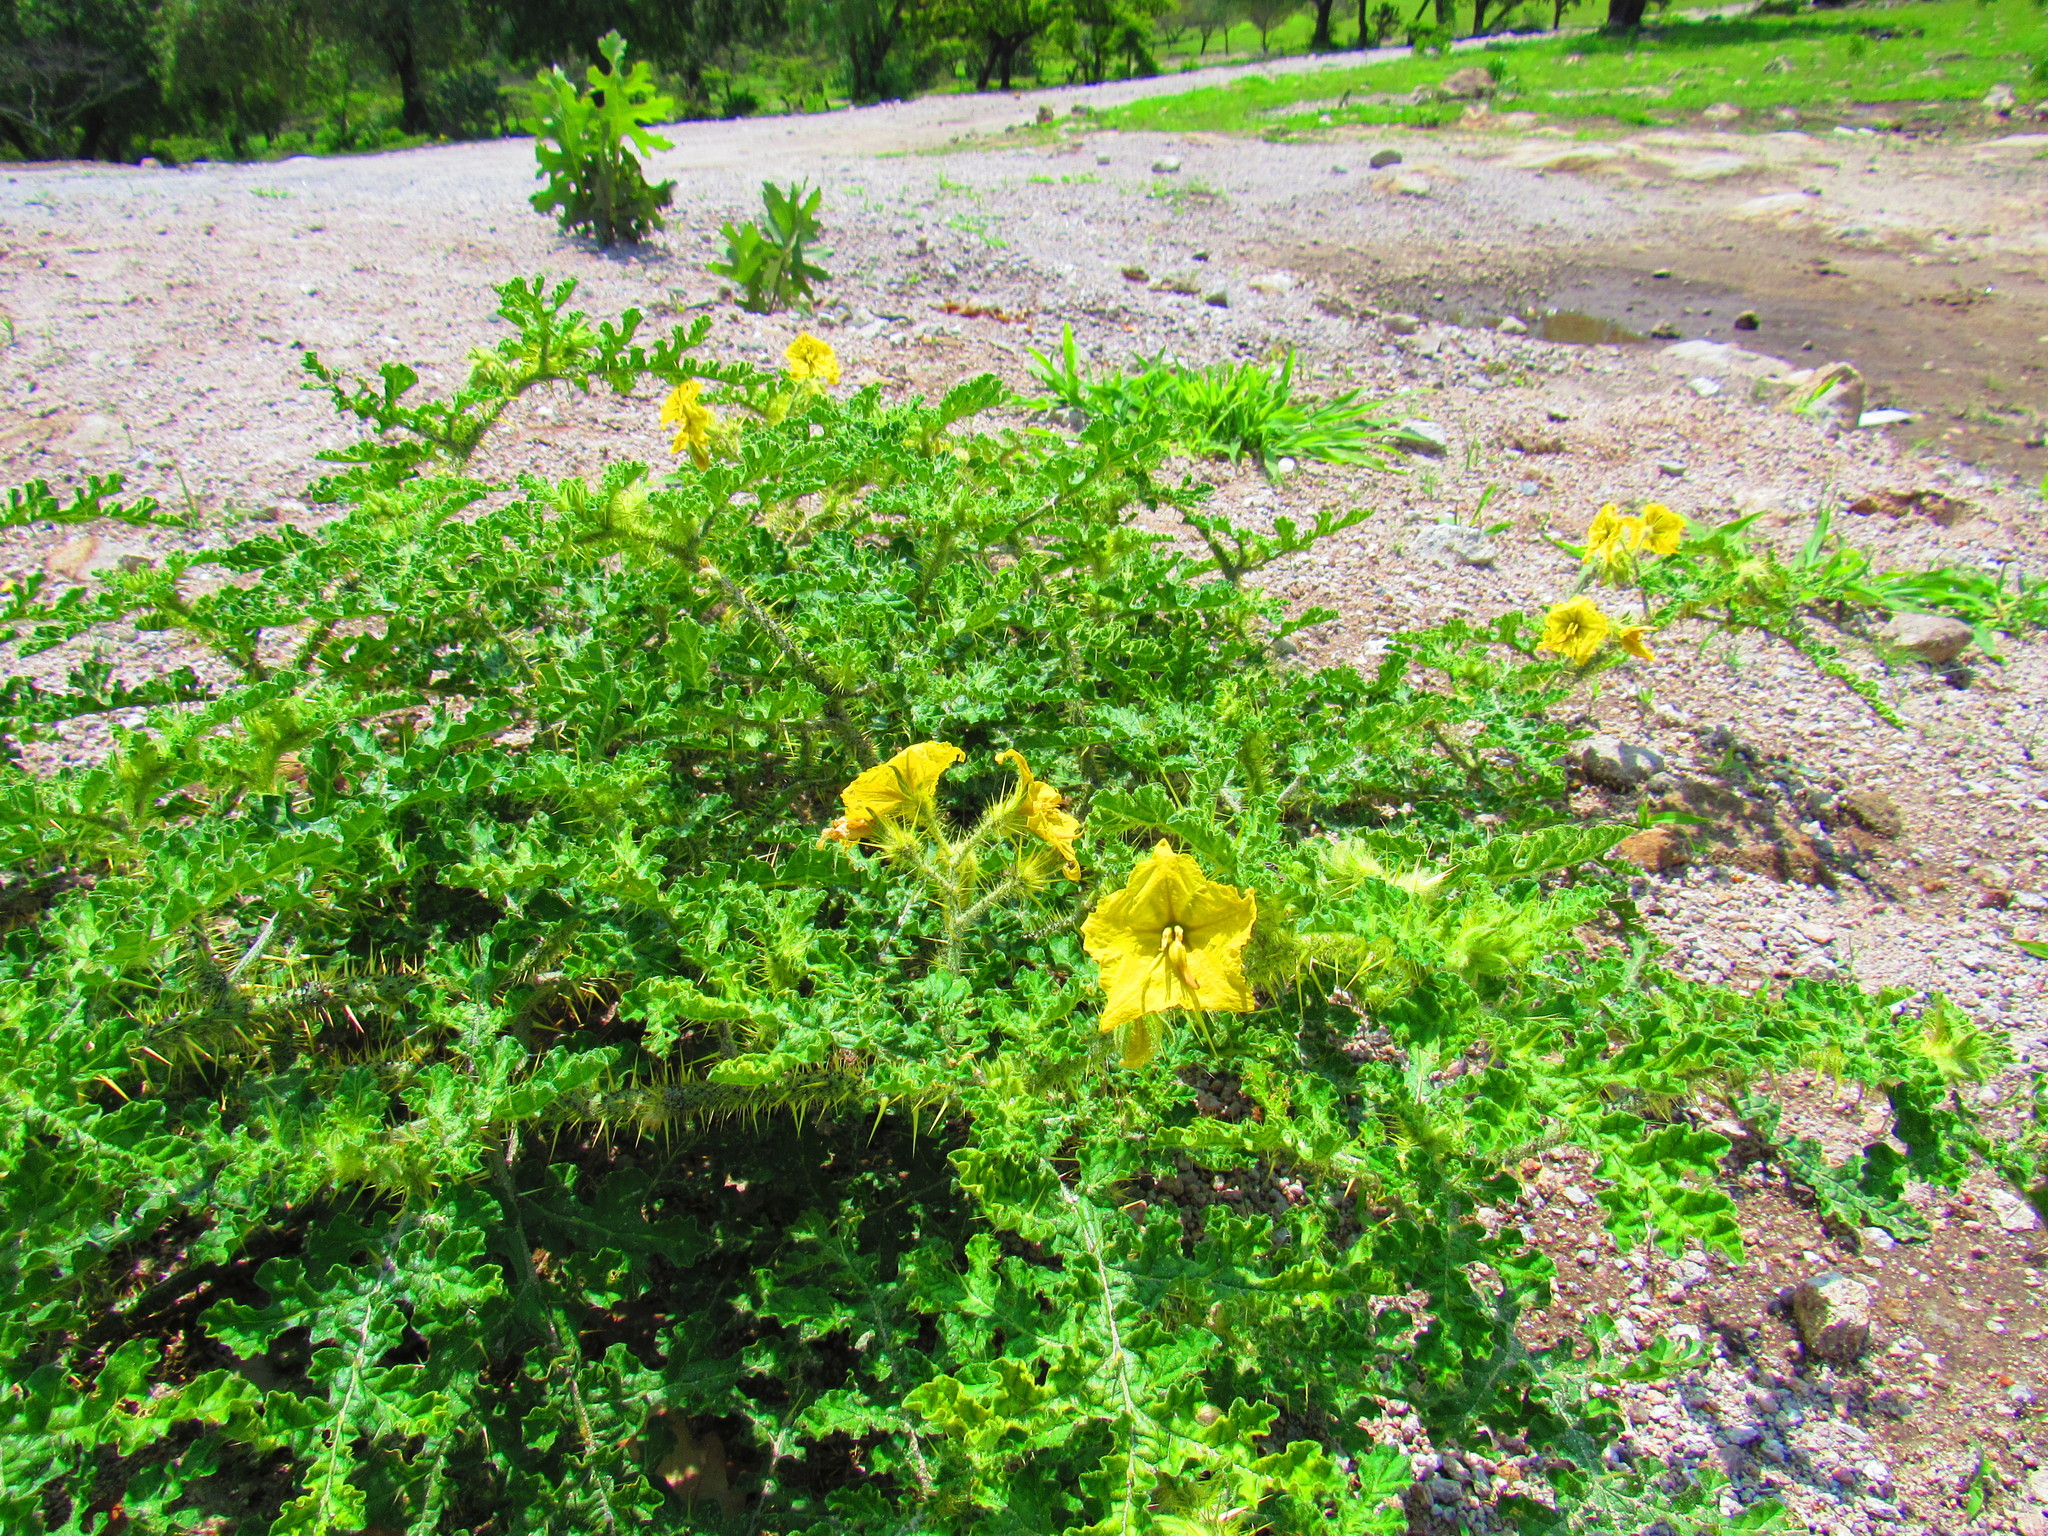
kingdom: Plantae
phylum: Tracheophyta
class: Magnoliopsida
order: Solanales
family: Solanaceae
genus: Solanum
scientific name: Solanum angustifolium
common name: Buffalobur nightshade
